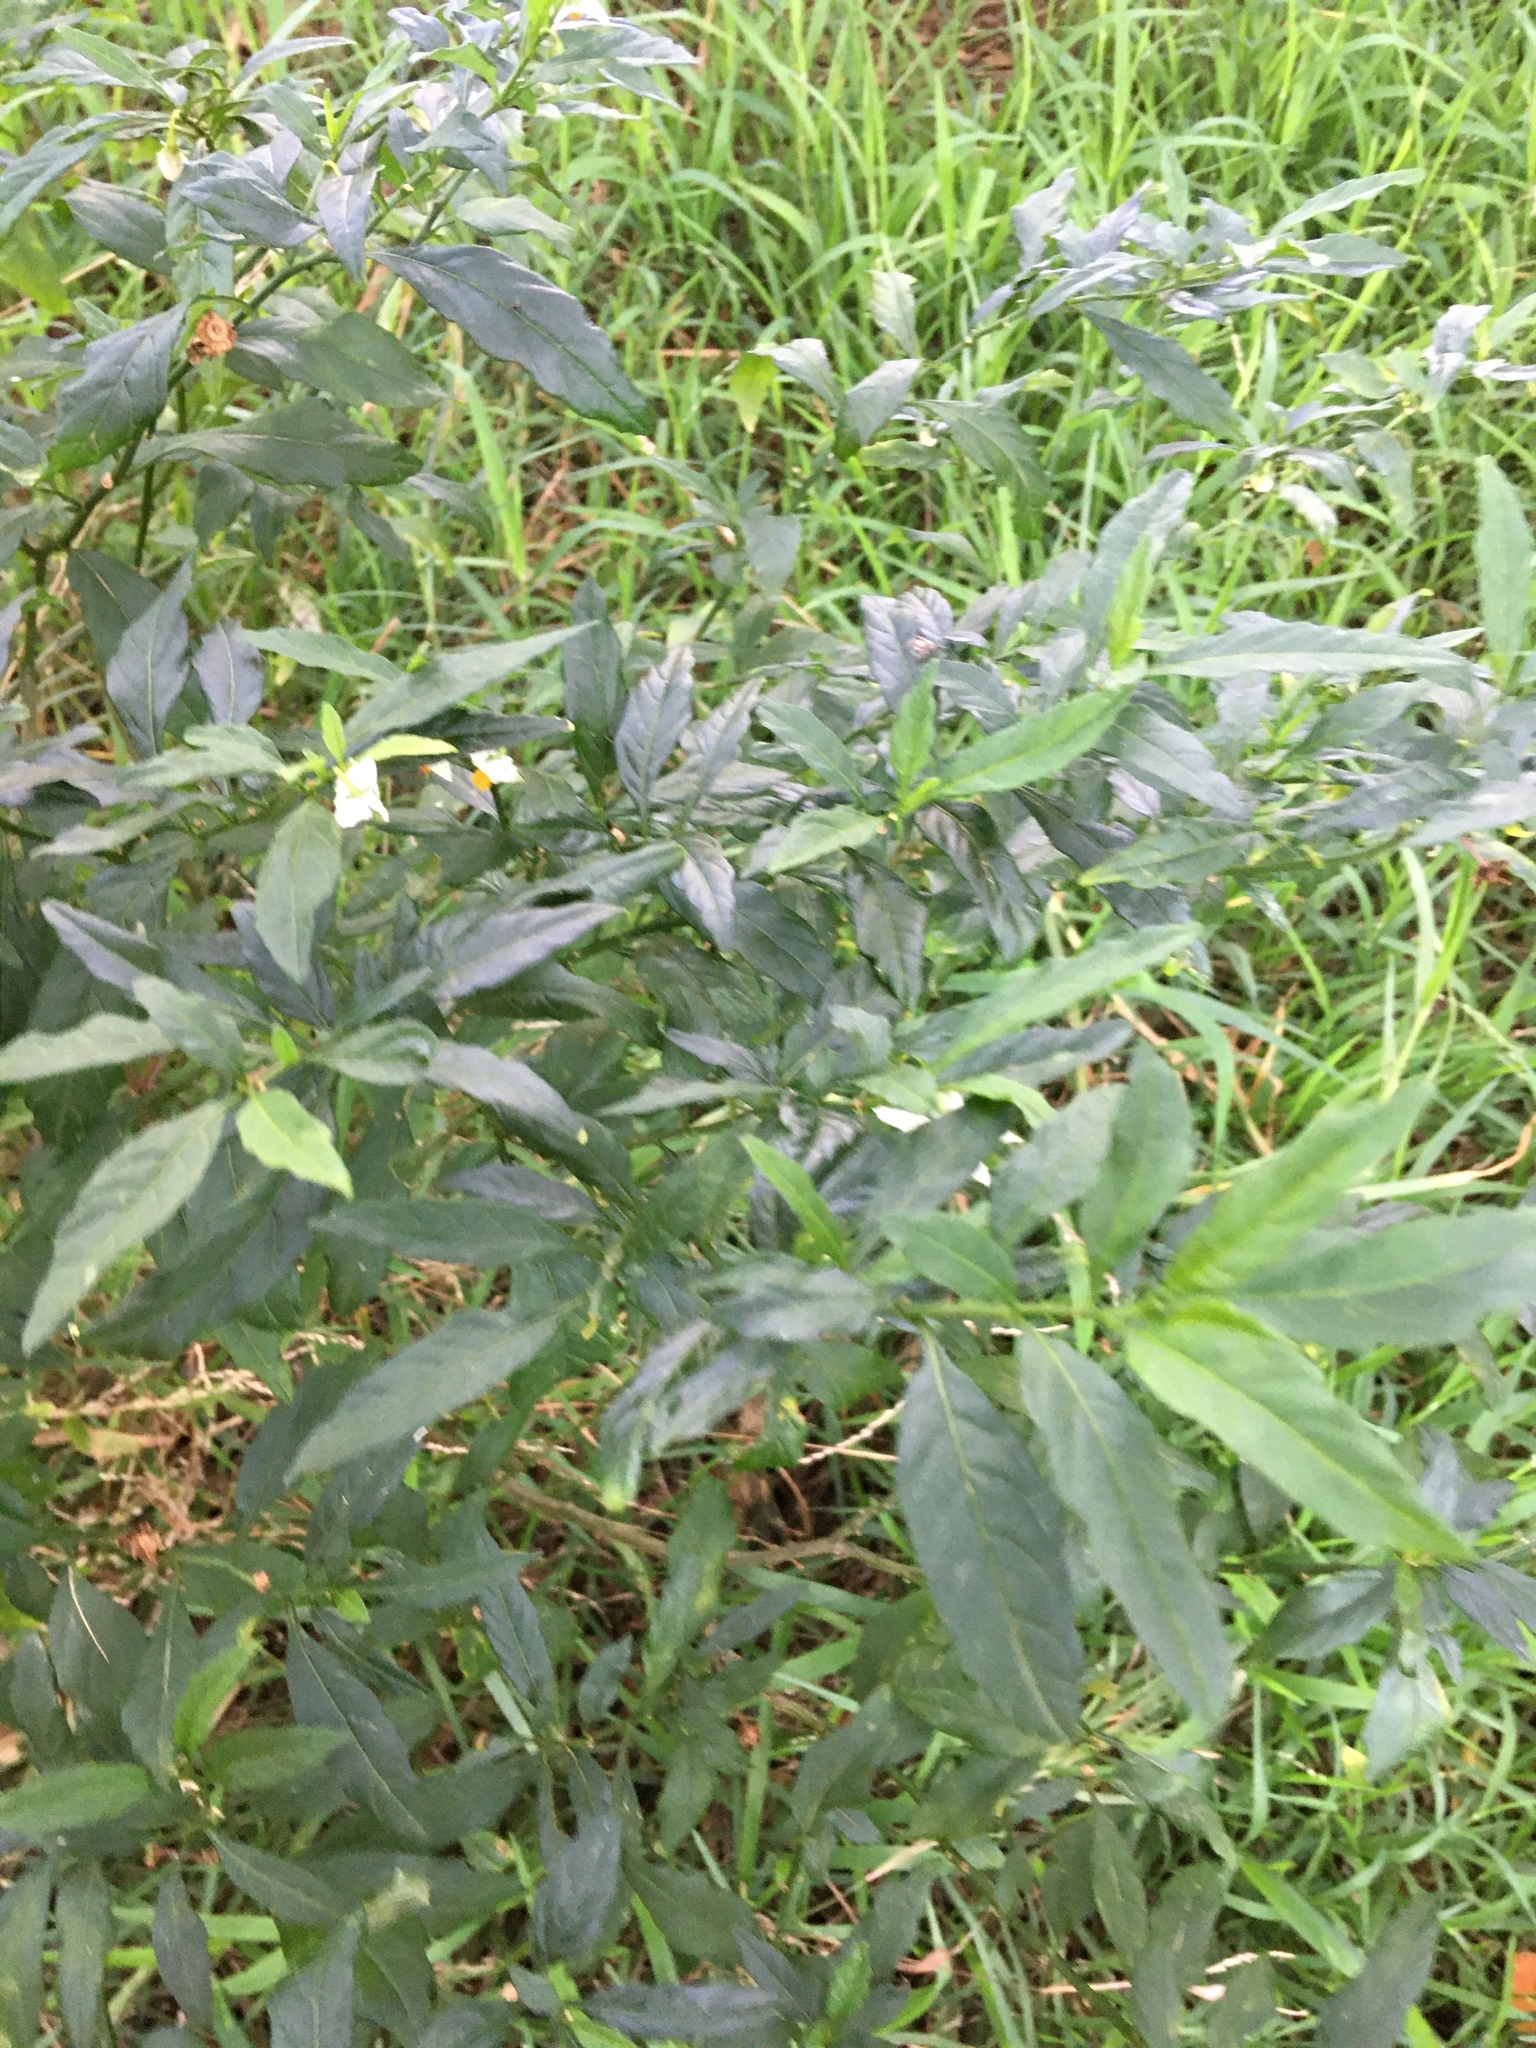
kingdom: Plantae
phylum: Tracheophyta
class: Magnoliopsida
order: Solanales
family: Solanaceae
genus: Solanum
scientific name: Solanum pseudocapsicum
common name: Jerusalem cherry
